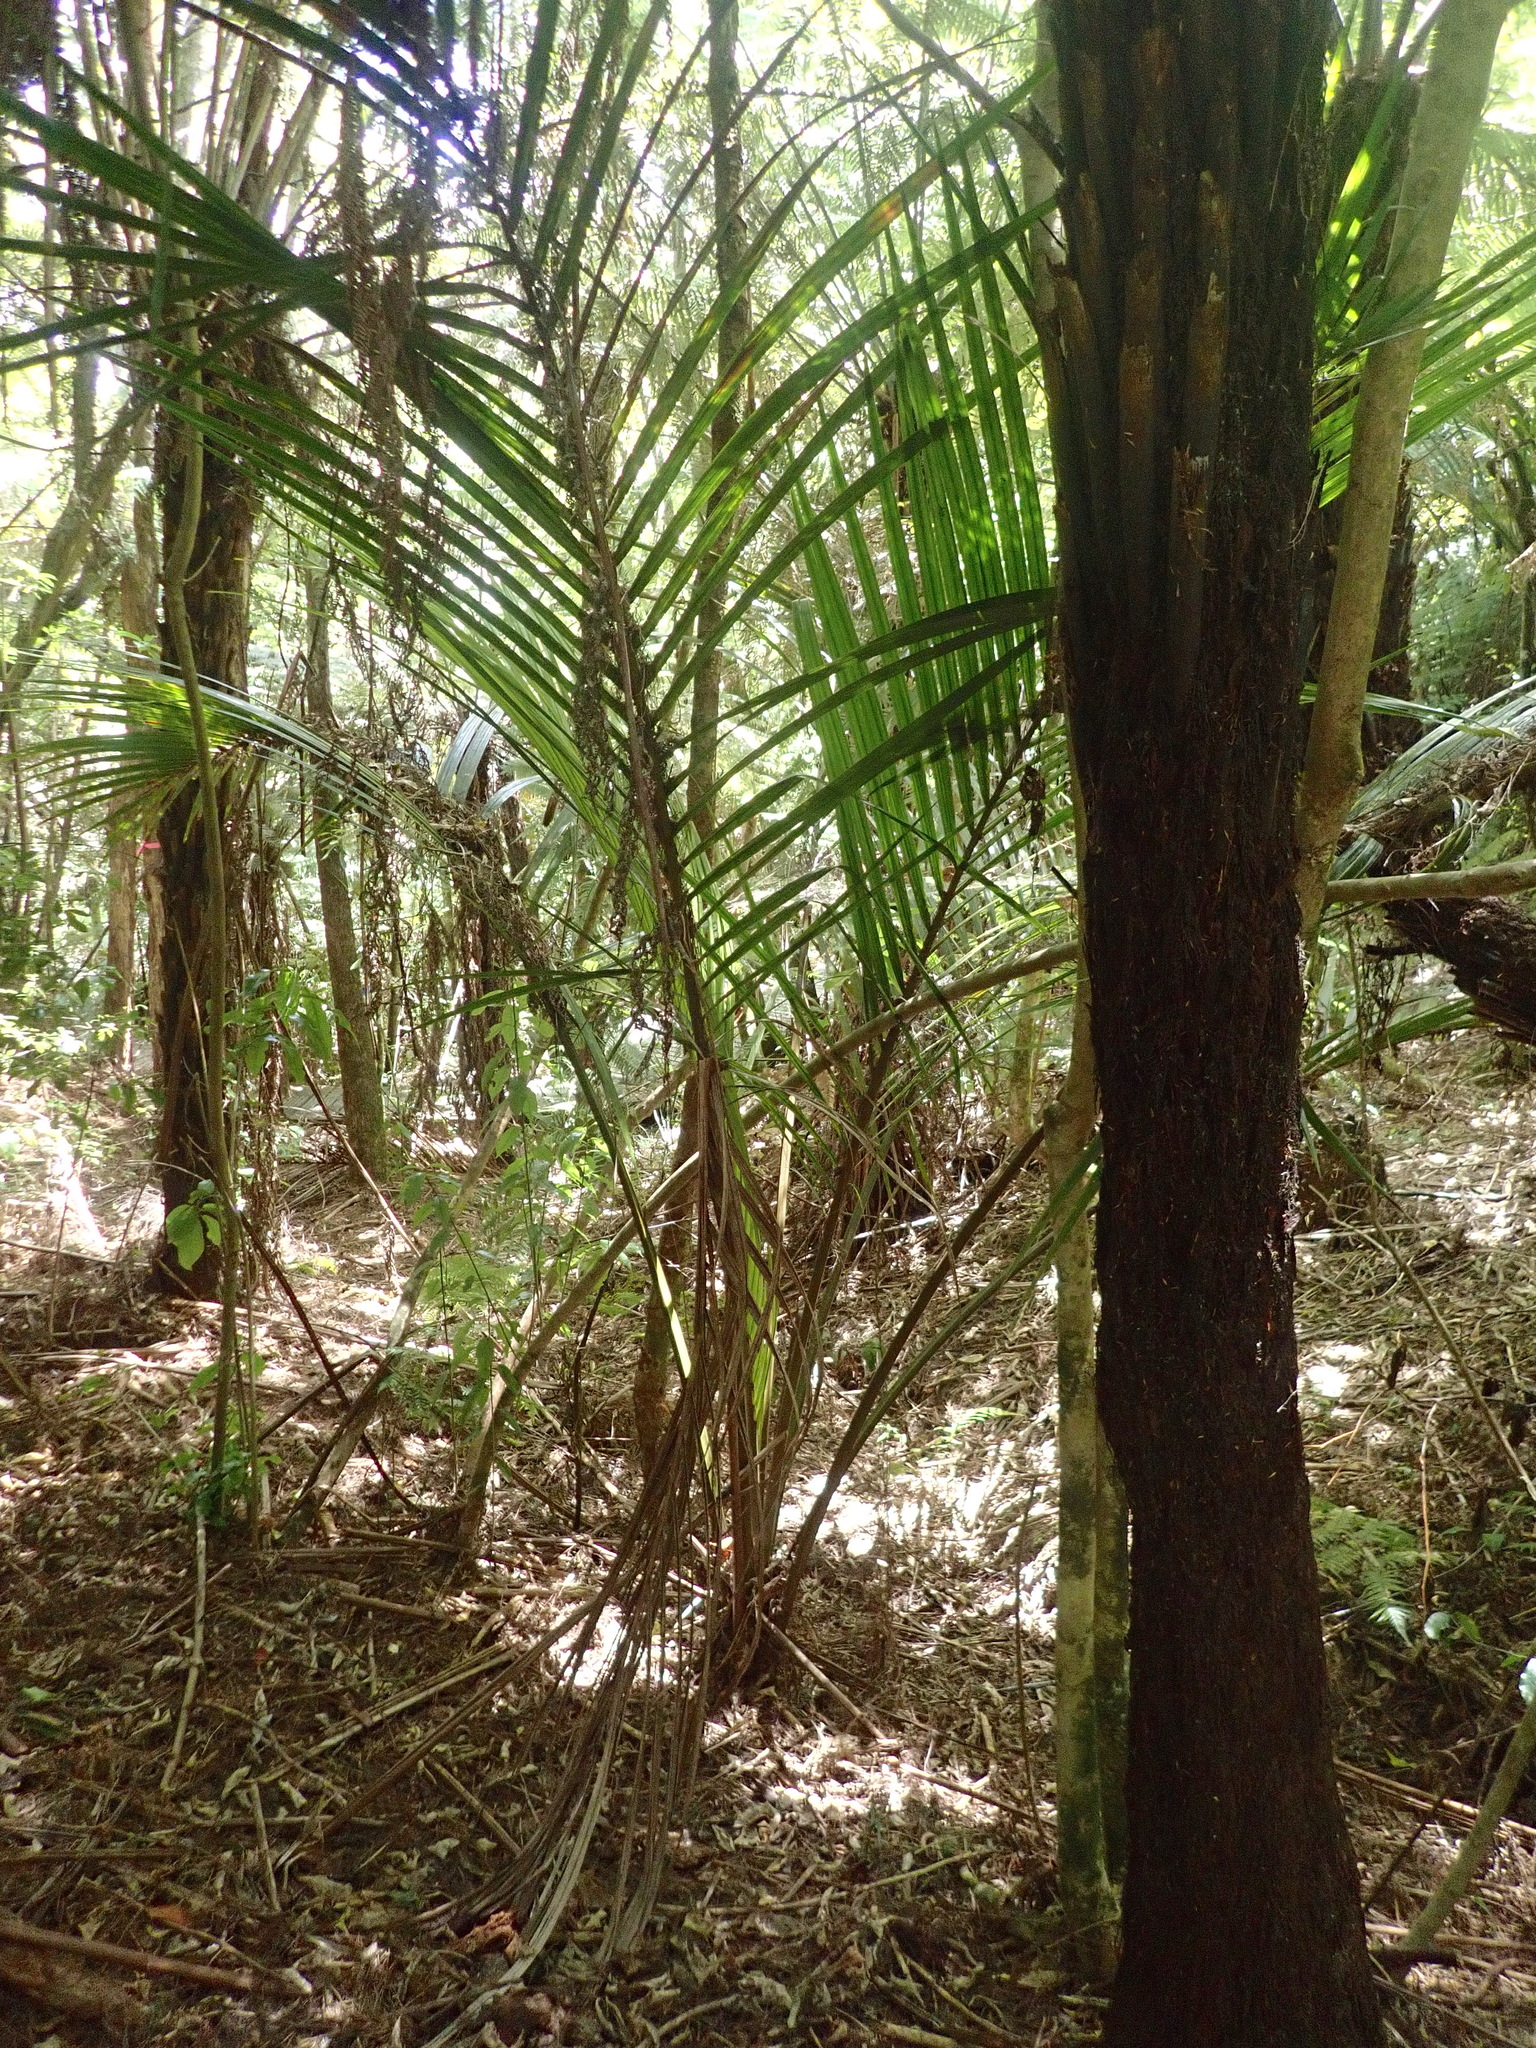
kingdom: Plantae
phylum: Tracheophyta
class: Liliopsida
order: Arecales
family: Arecaceae
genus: Rhopalostylis
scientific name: Rhopalostylis sapida
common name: Feather-duster palm
